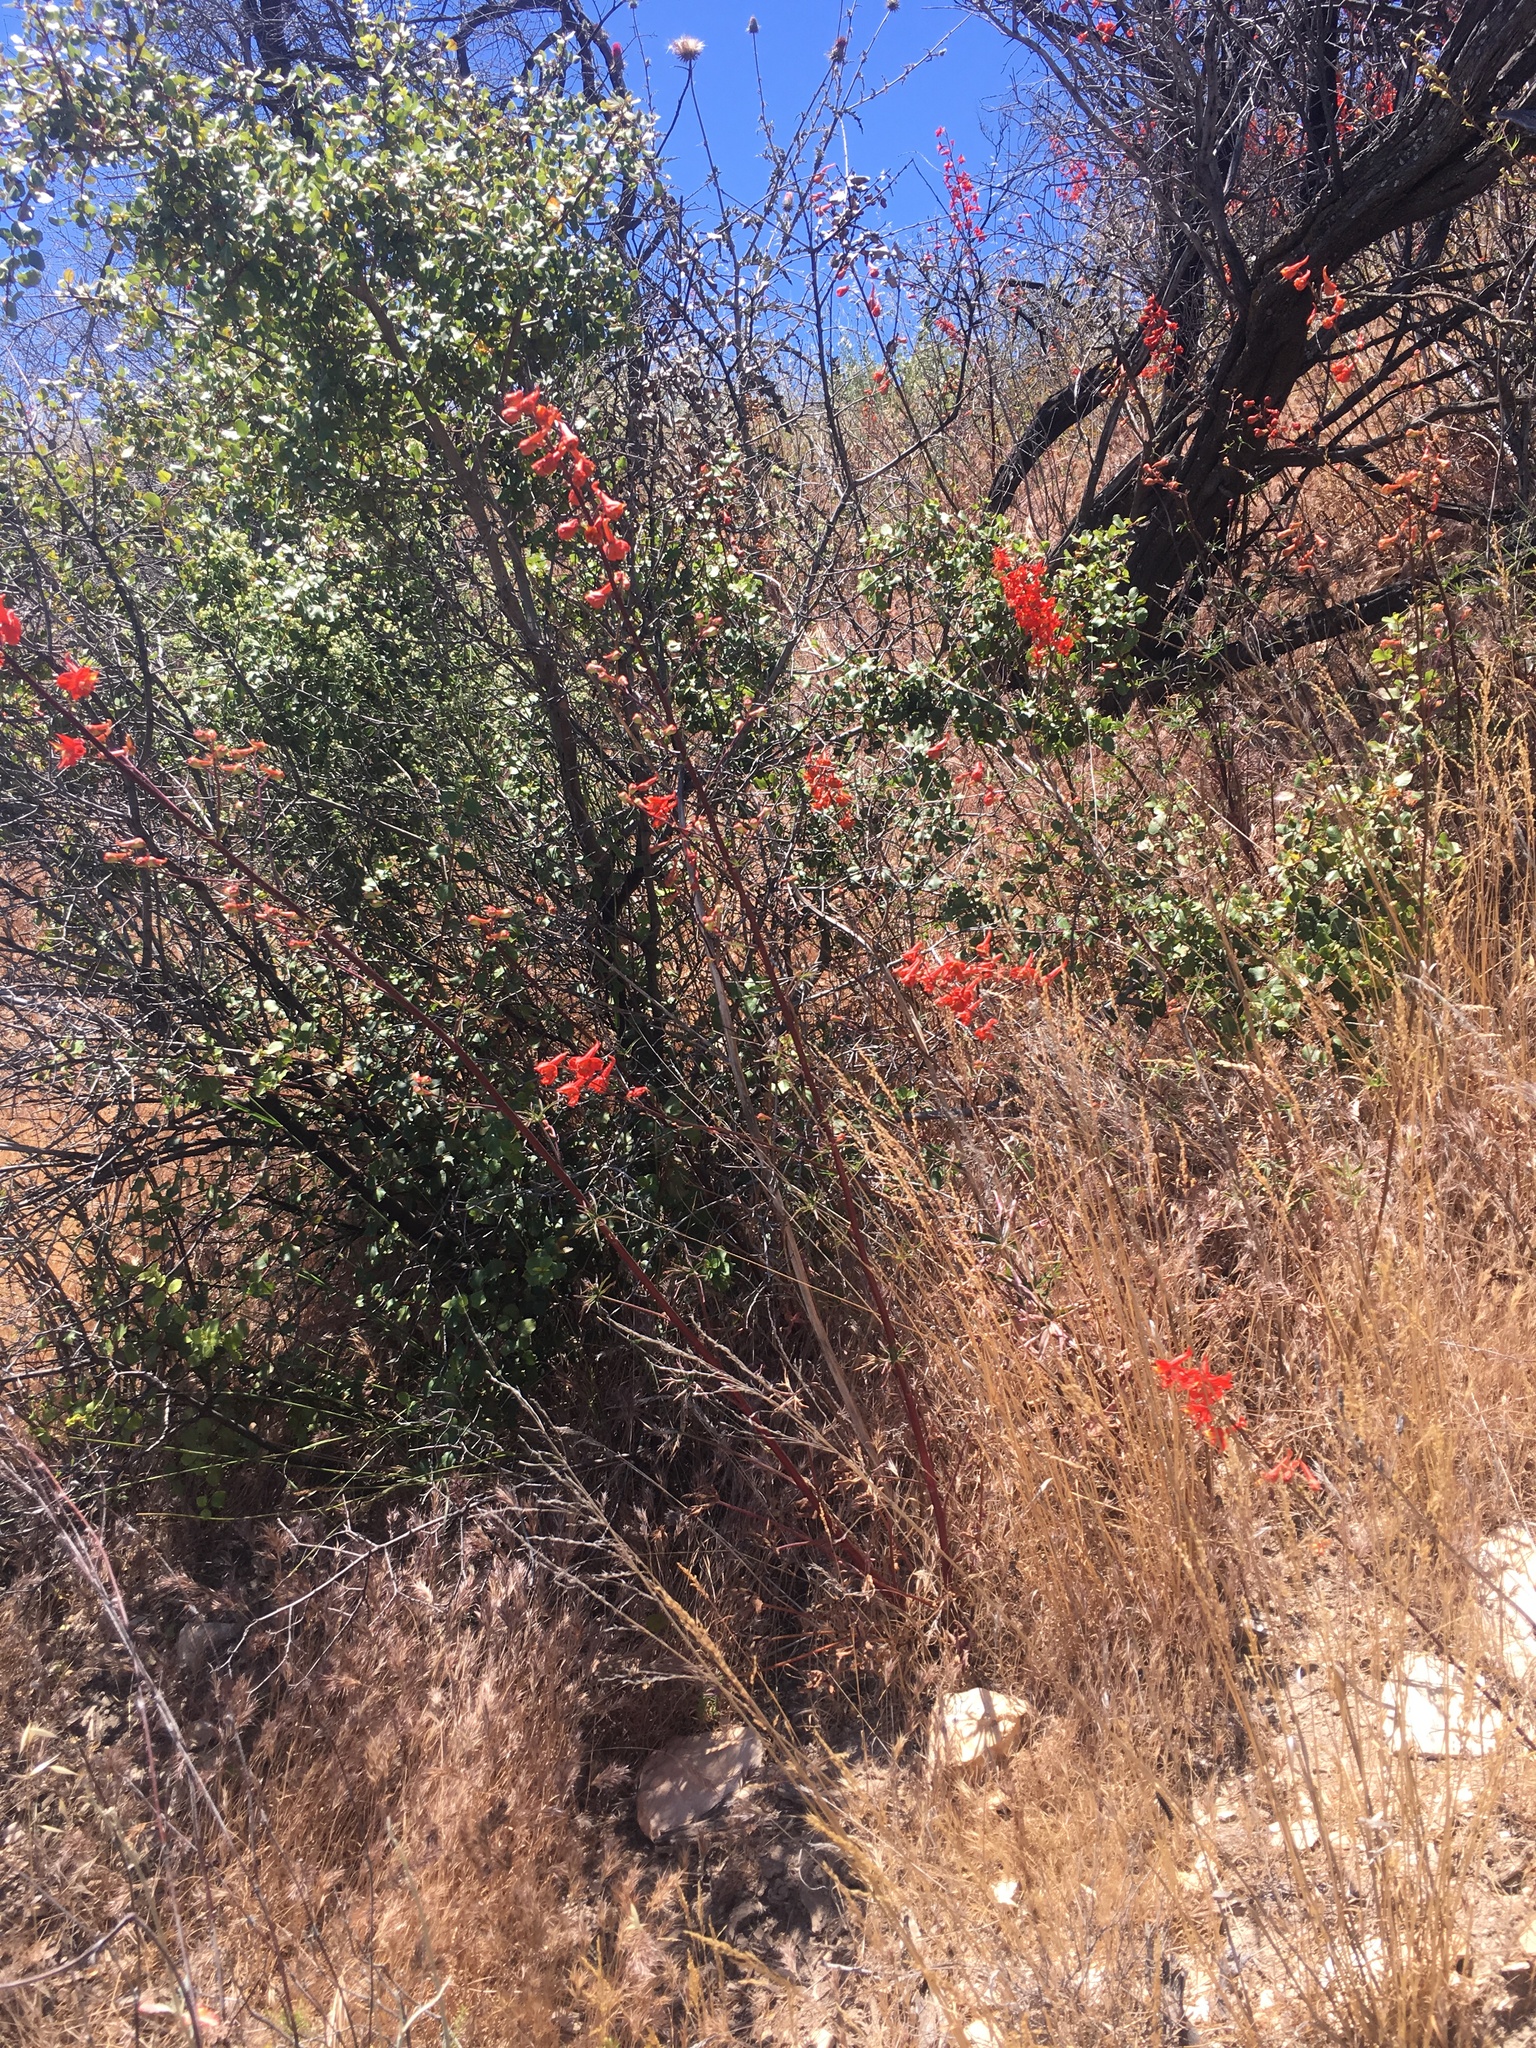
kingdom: Plantae
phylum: Tracheophyta
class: Magnoliopsida
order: Ranunculales
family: Ranunculaceae
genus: Delphinium
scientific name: Delphinium cardinale
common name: Scarlet larkspur
